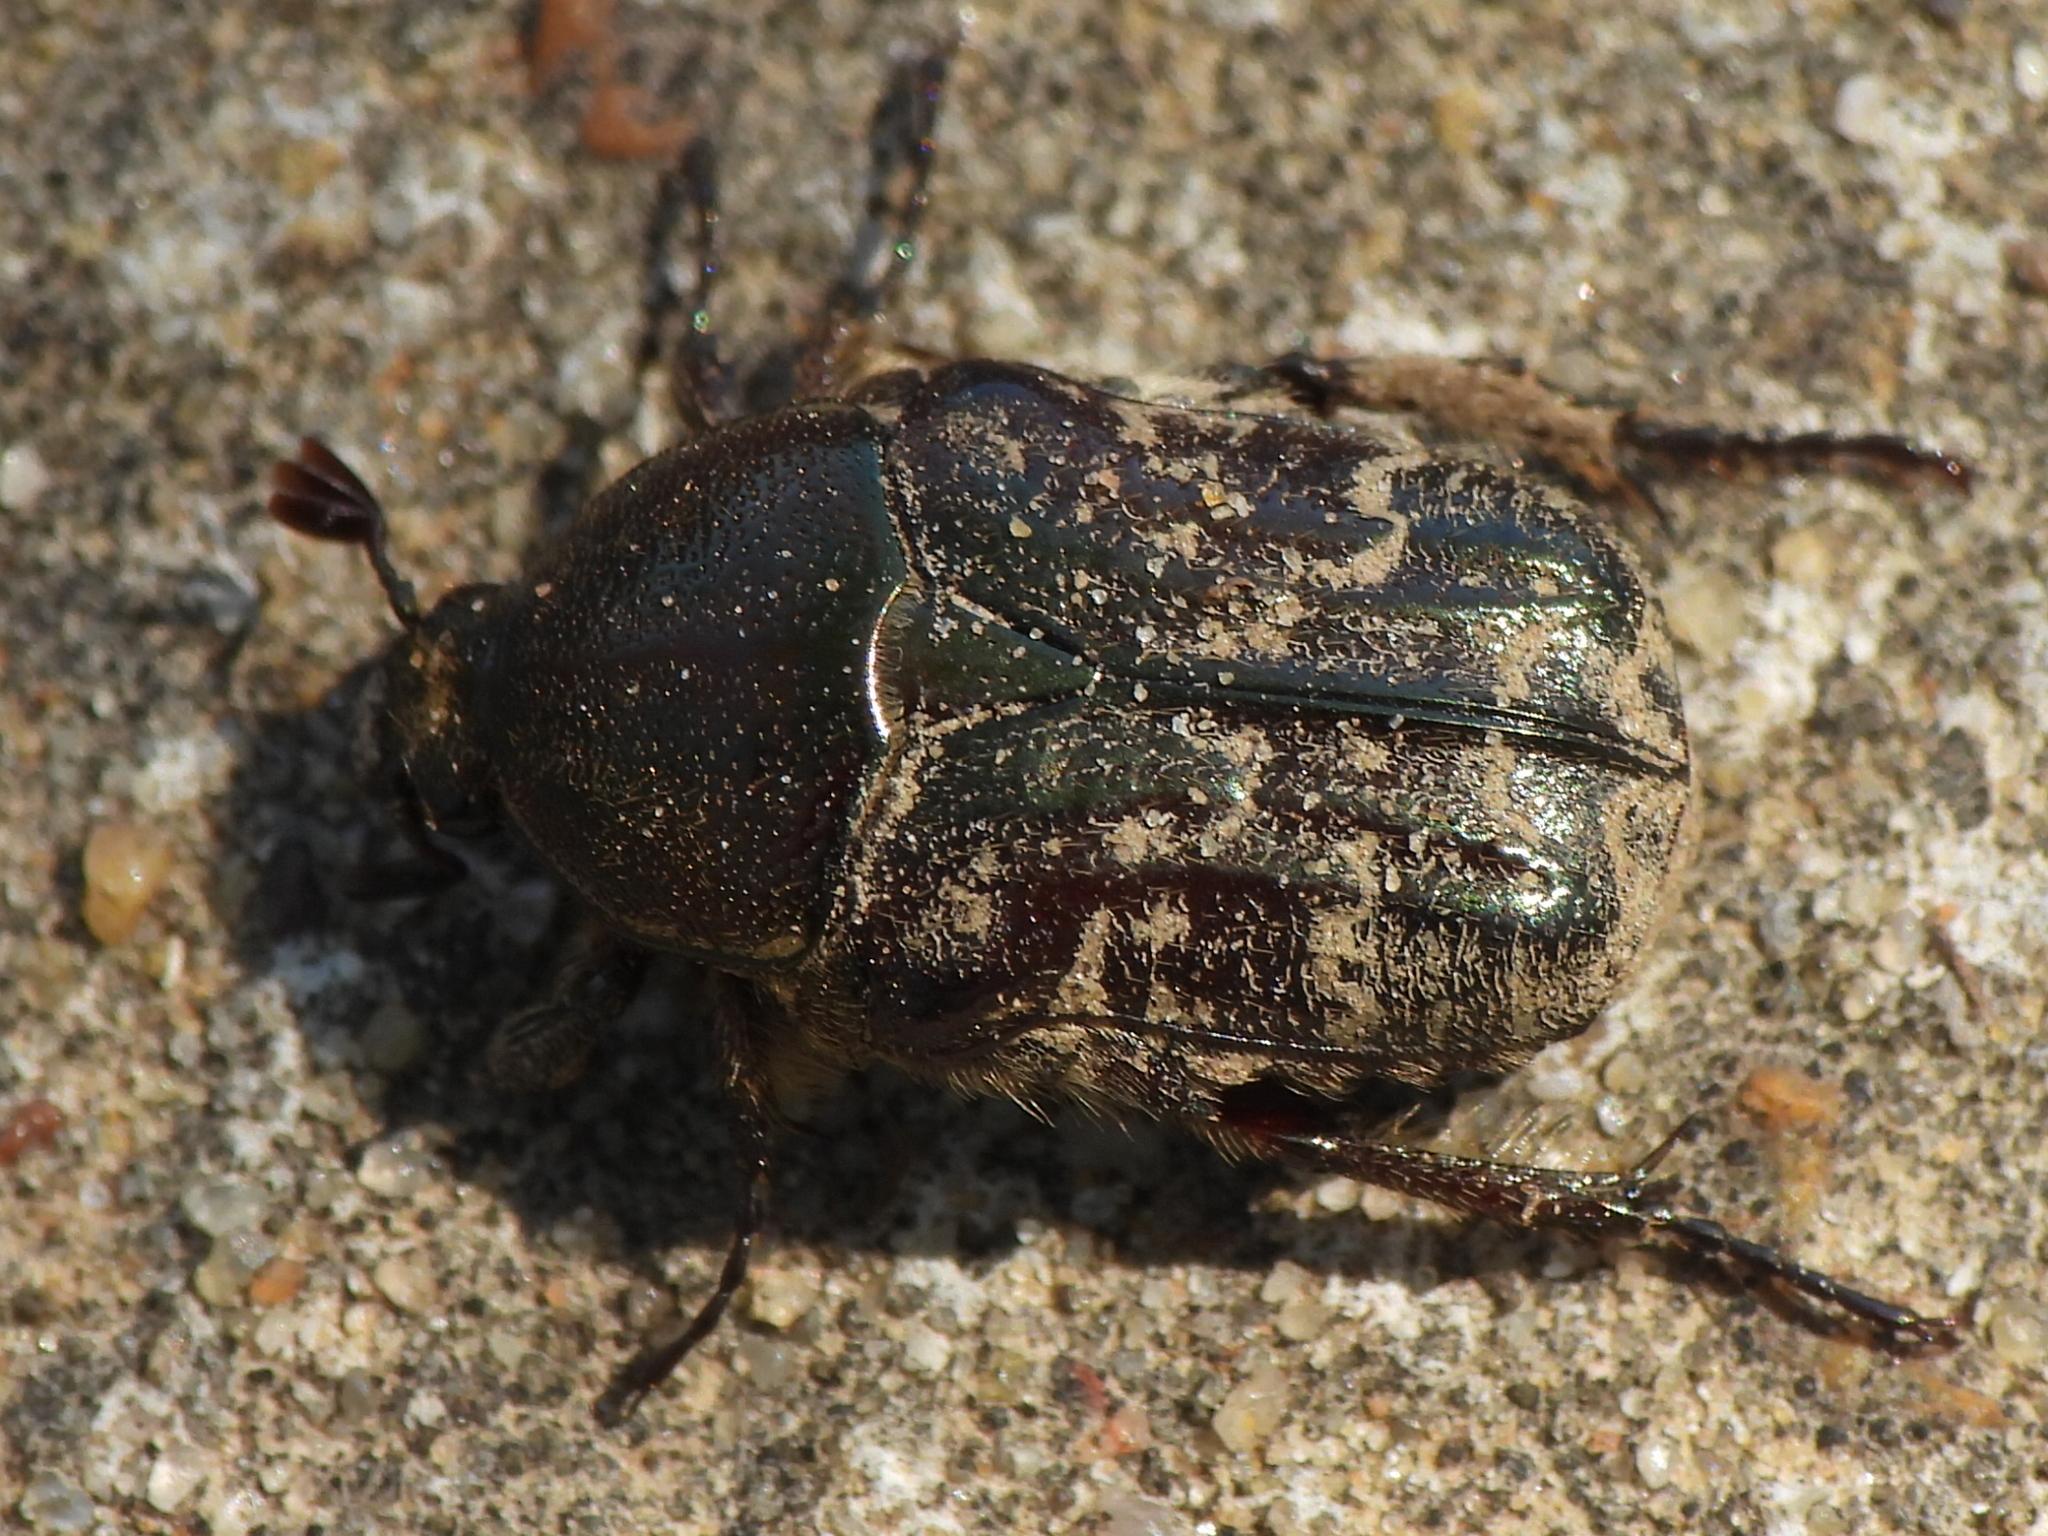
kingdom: Animalia
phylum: Arthropoda
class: Insecta
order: Coleoptera
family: Scarabaeidae
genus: Euphoria
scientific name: Euphoria sepulcralis
